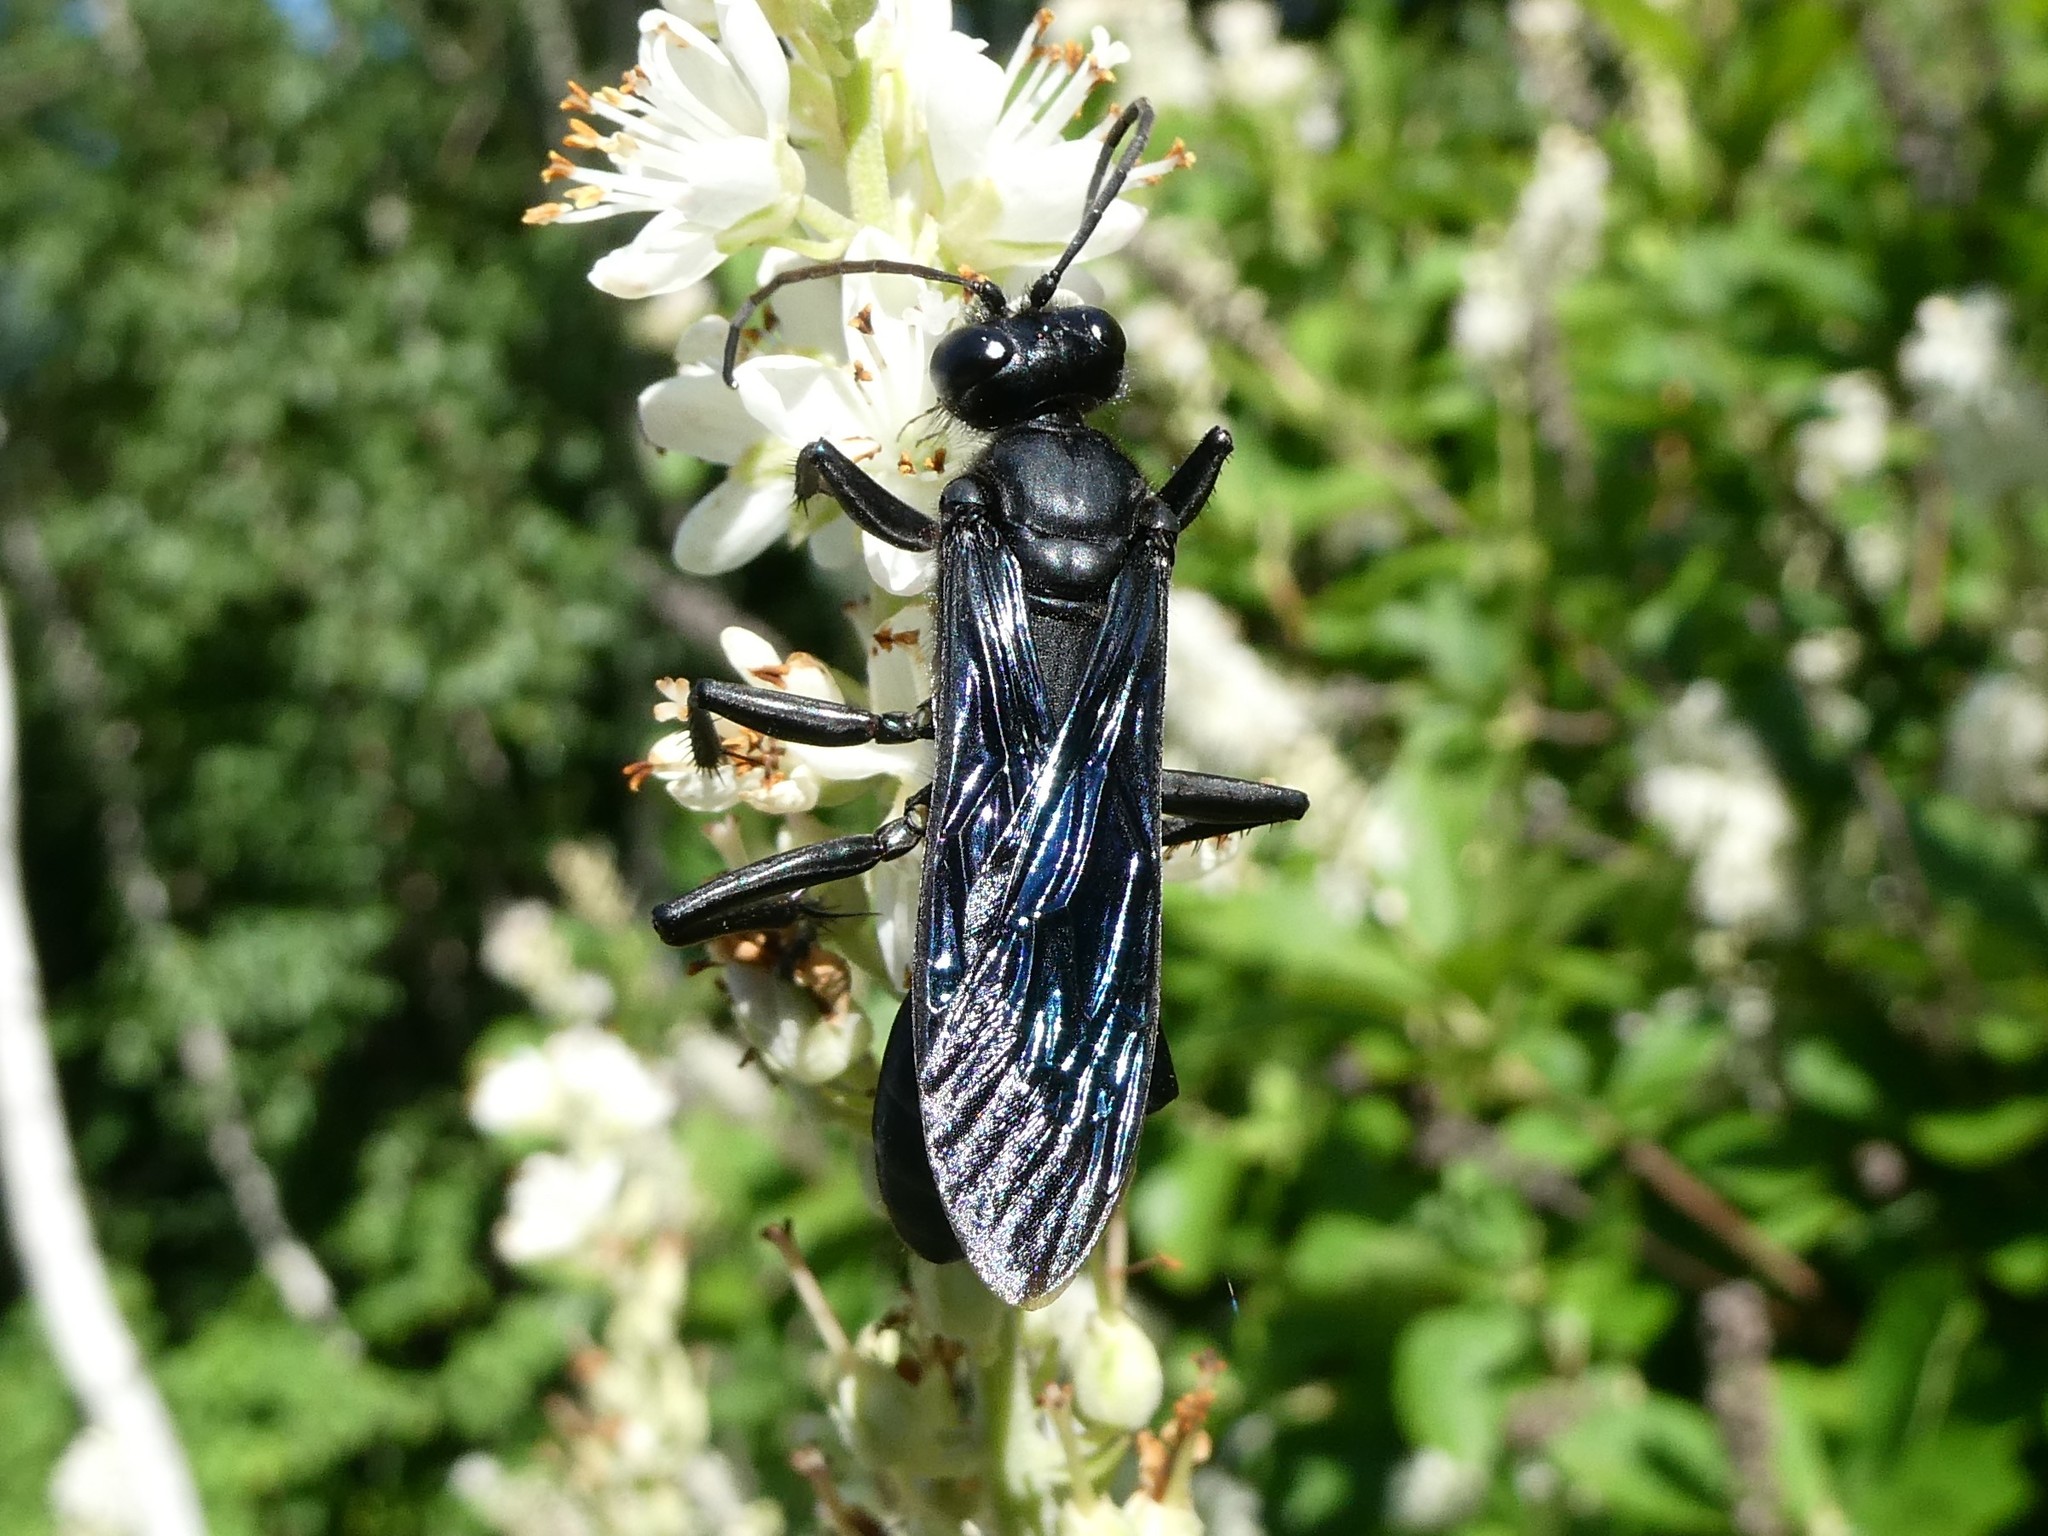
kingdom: Animalia
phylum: Arthropoda
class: Insecta
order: Hymenoptera
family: Sphecidae
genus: Sphex
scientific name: Sphex pensylvanicus
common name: Great black digger wasp
